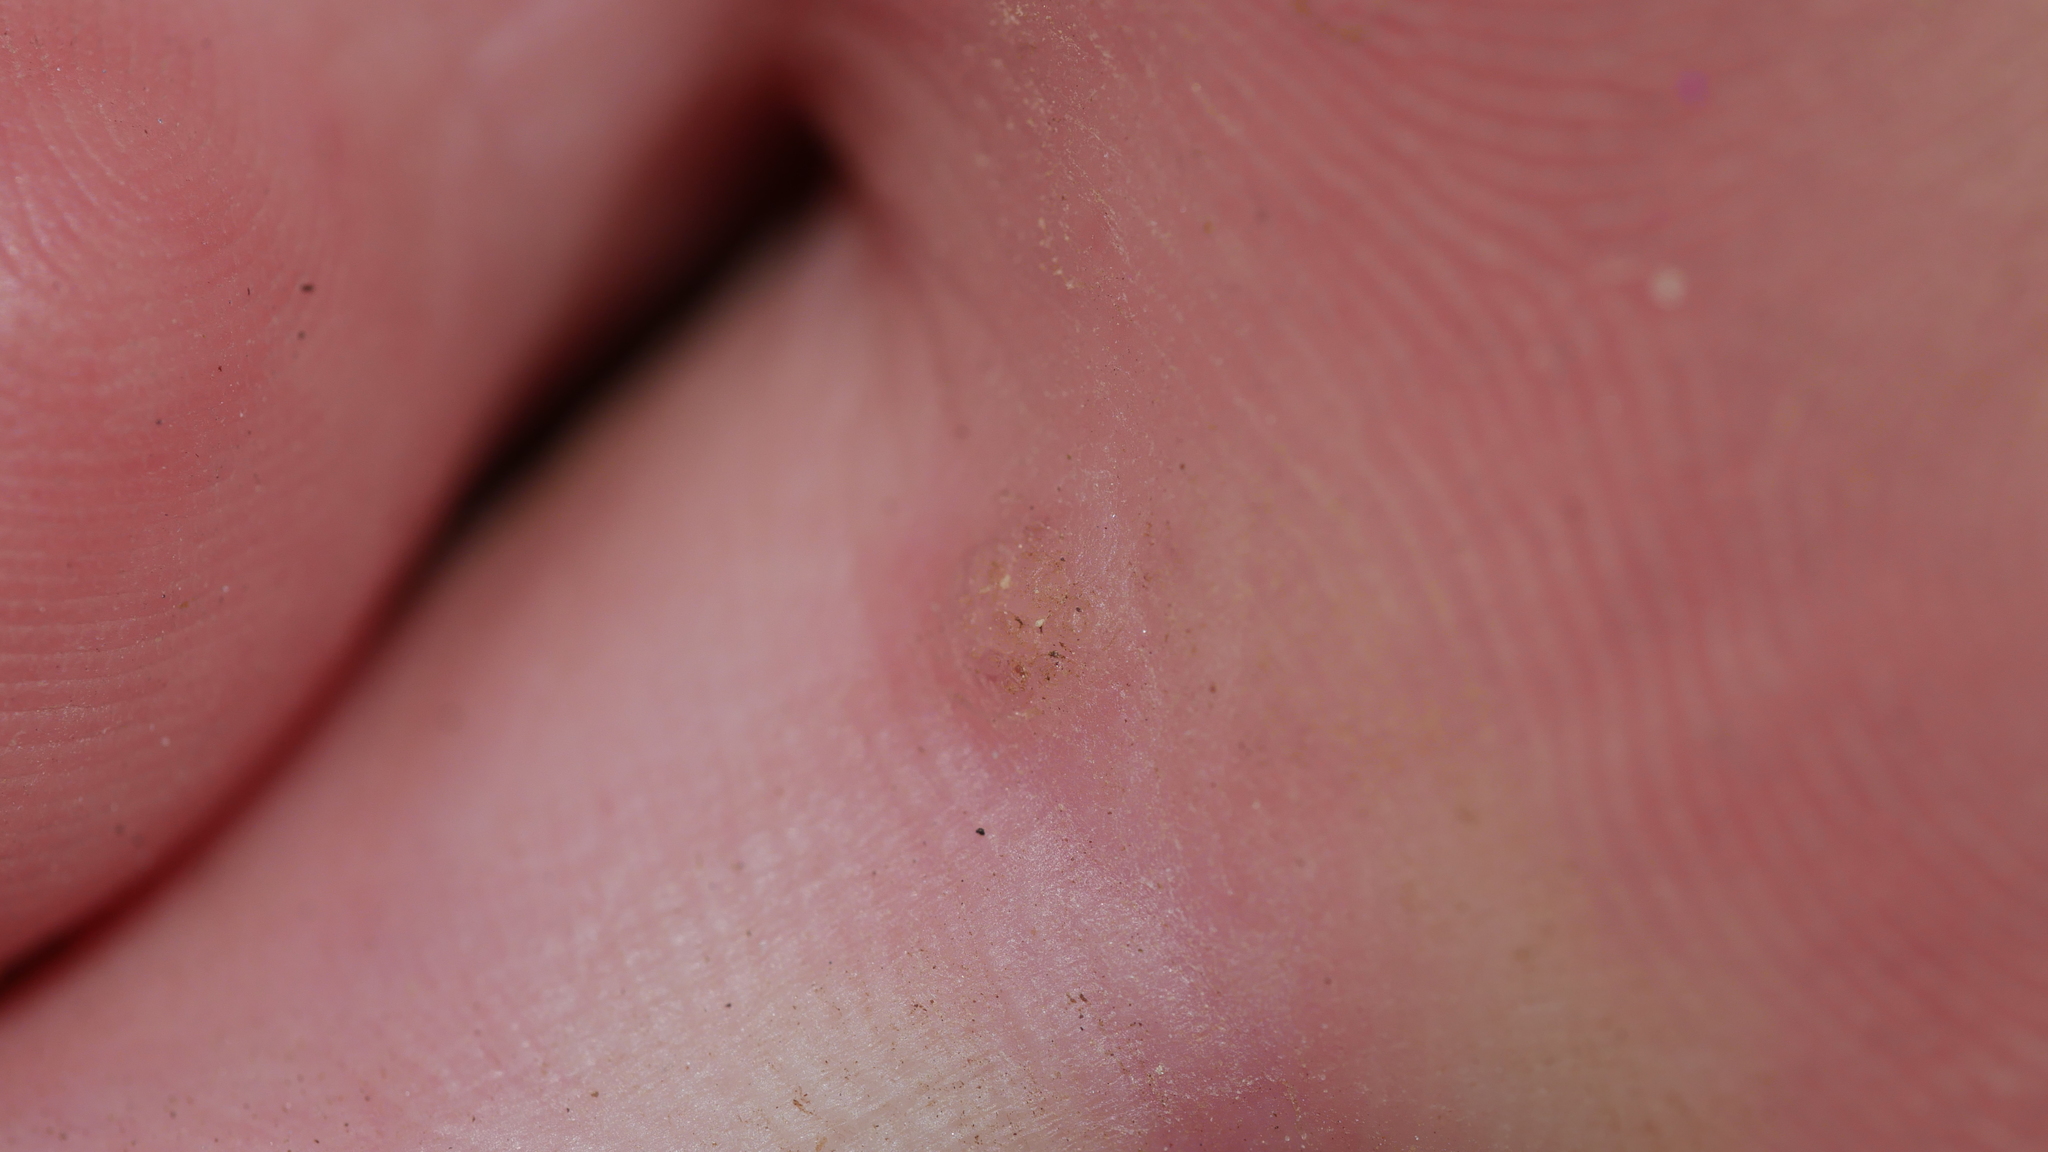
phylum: Cossaviricota
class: Papovaviricetes
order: Zurhausenvirales
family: Papillomaviridae
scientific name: Papillomaviridae
